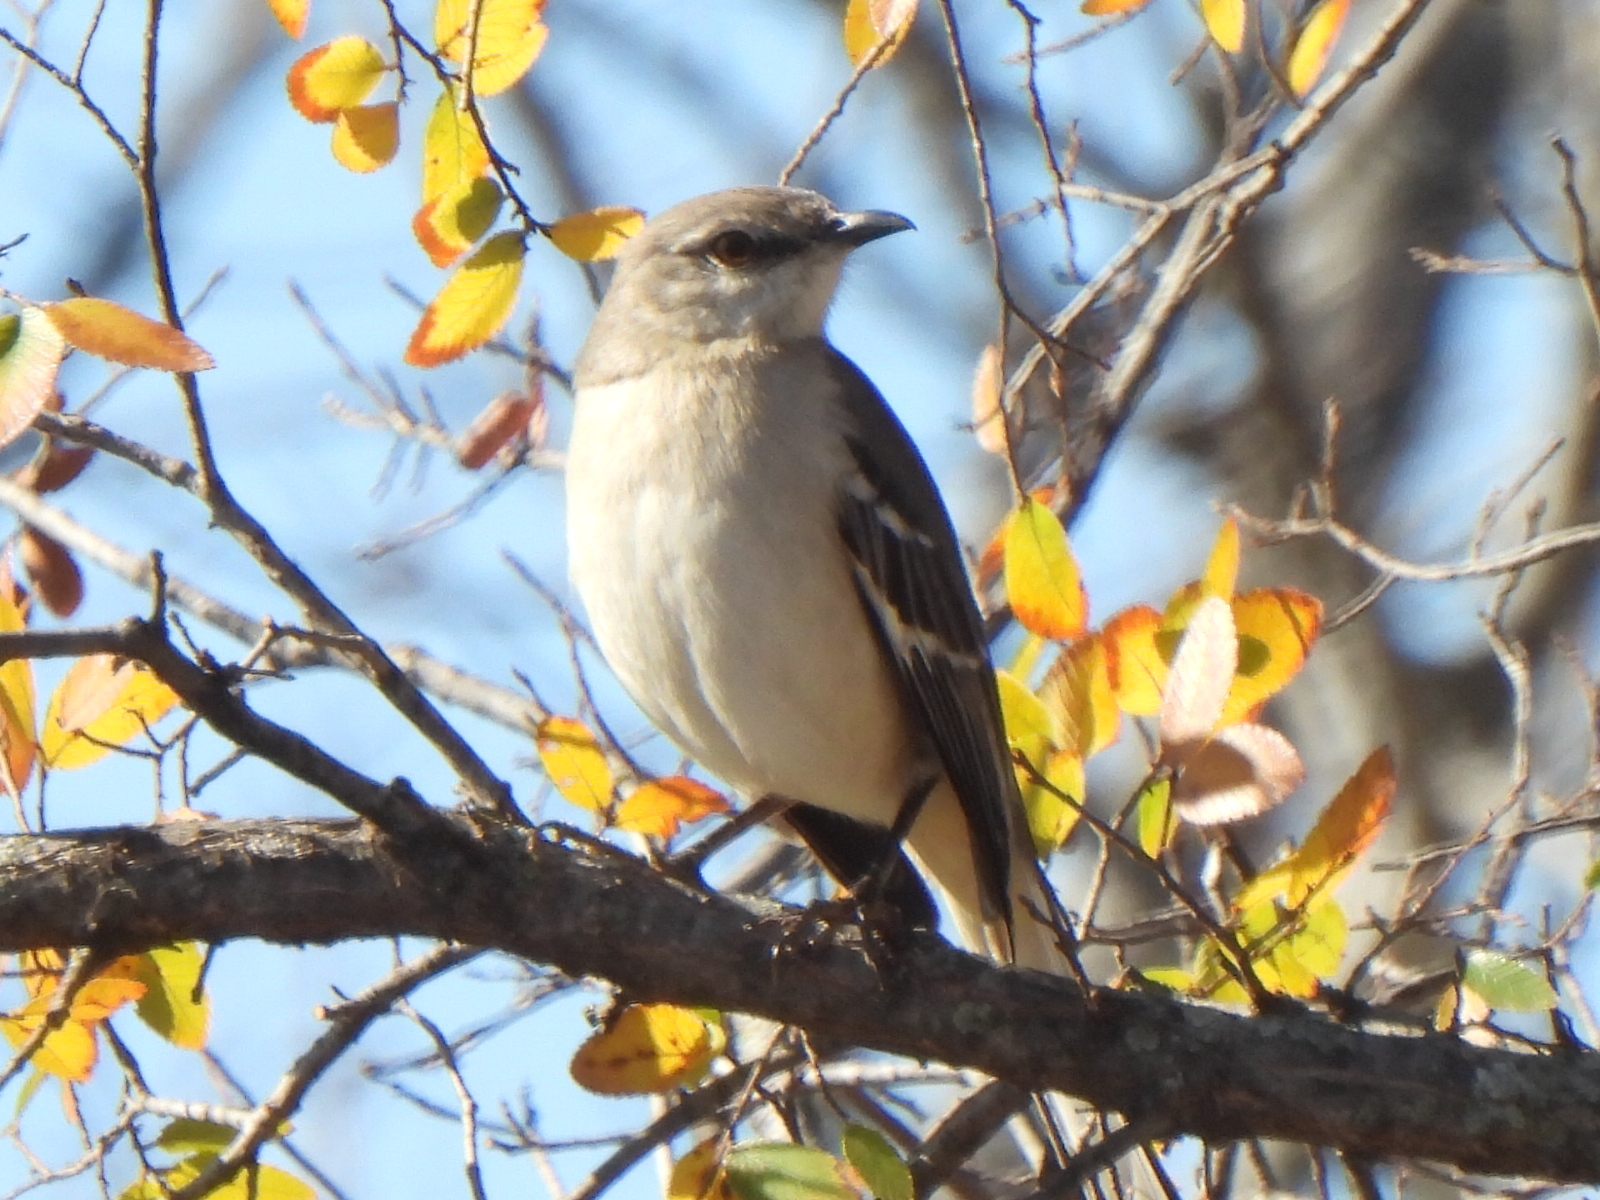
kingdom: Animalia
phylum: Chordata
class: Aves
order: Passeriformes
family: Mimidae
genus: Mimus
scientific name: Mimus polyglottos
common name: Northern mockingbird
